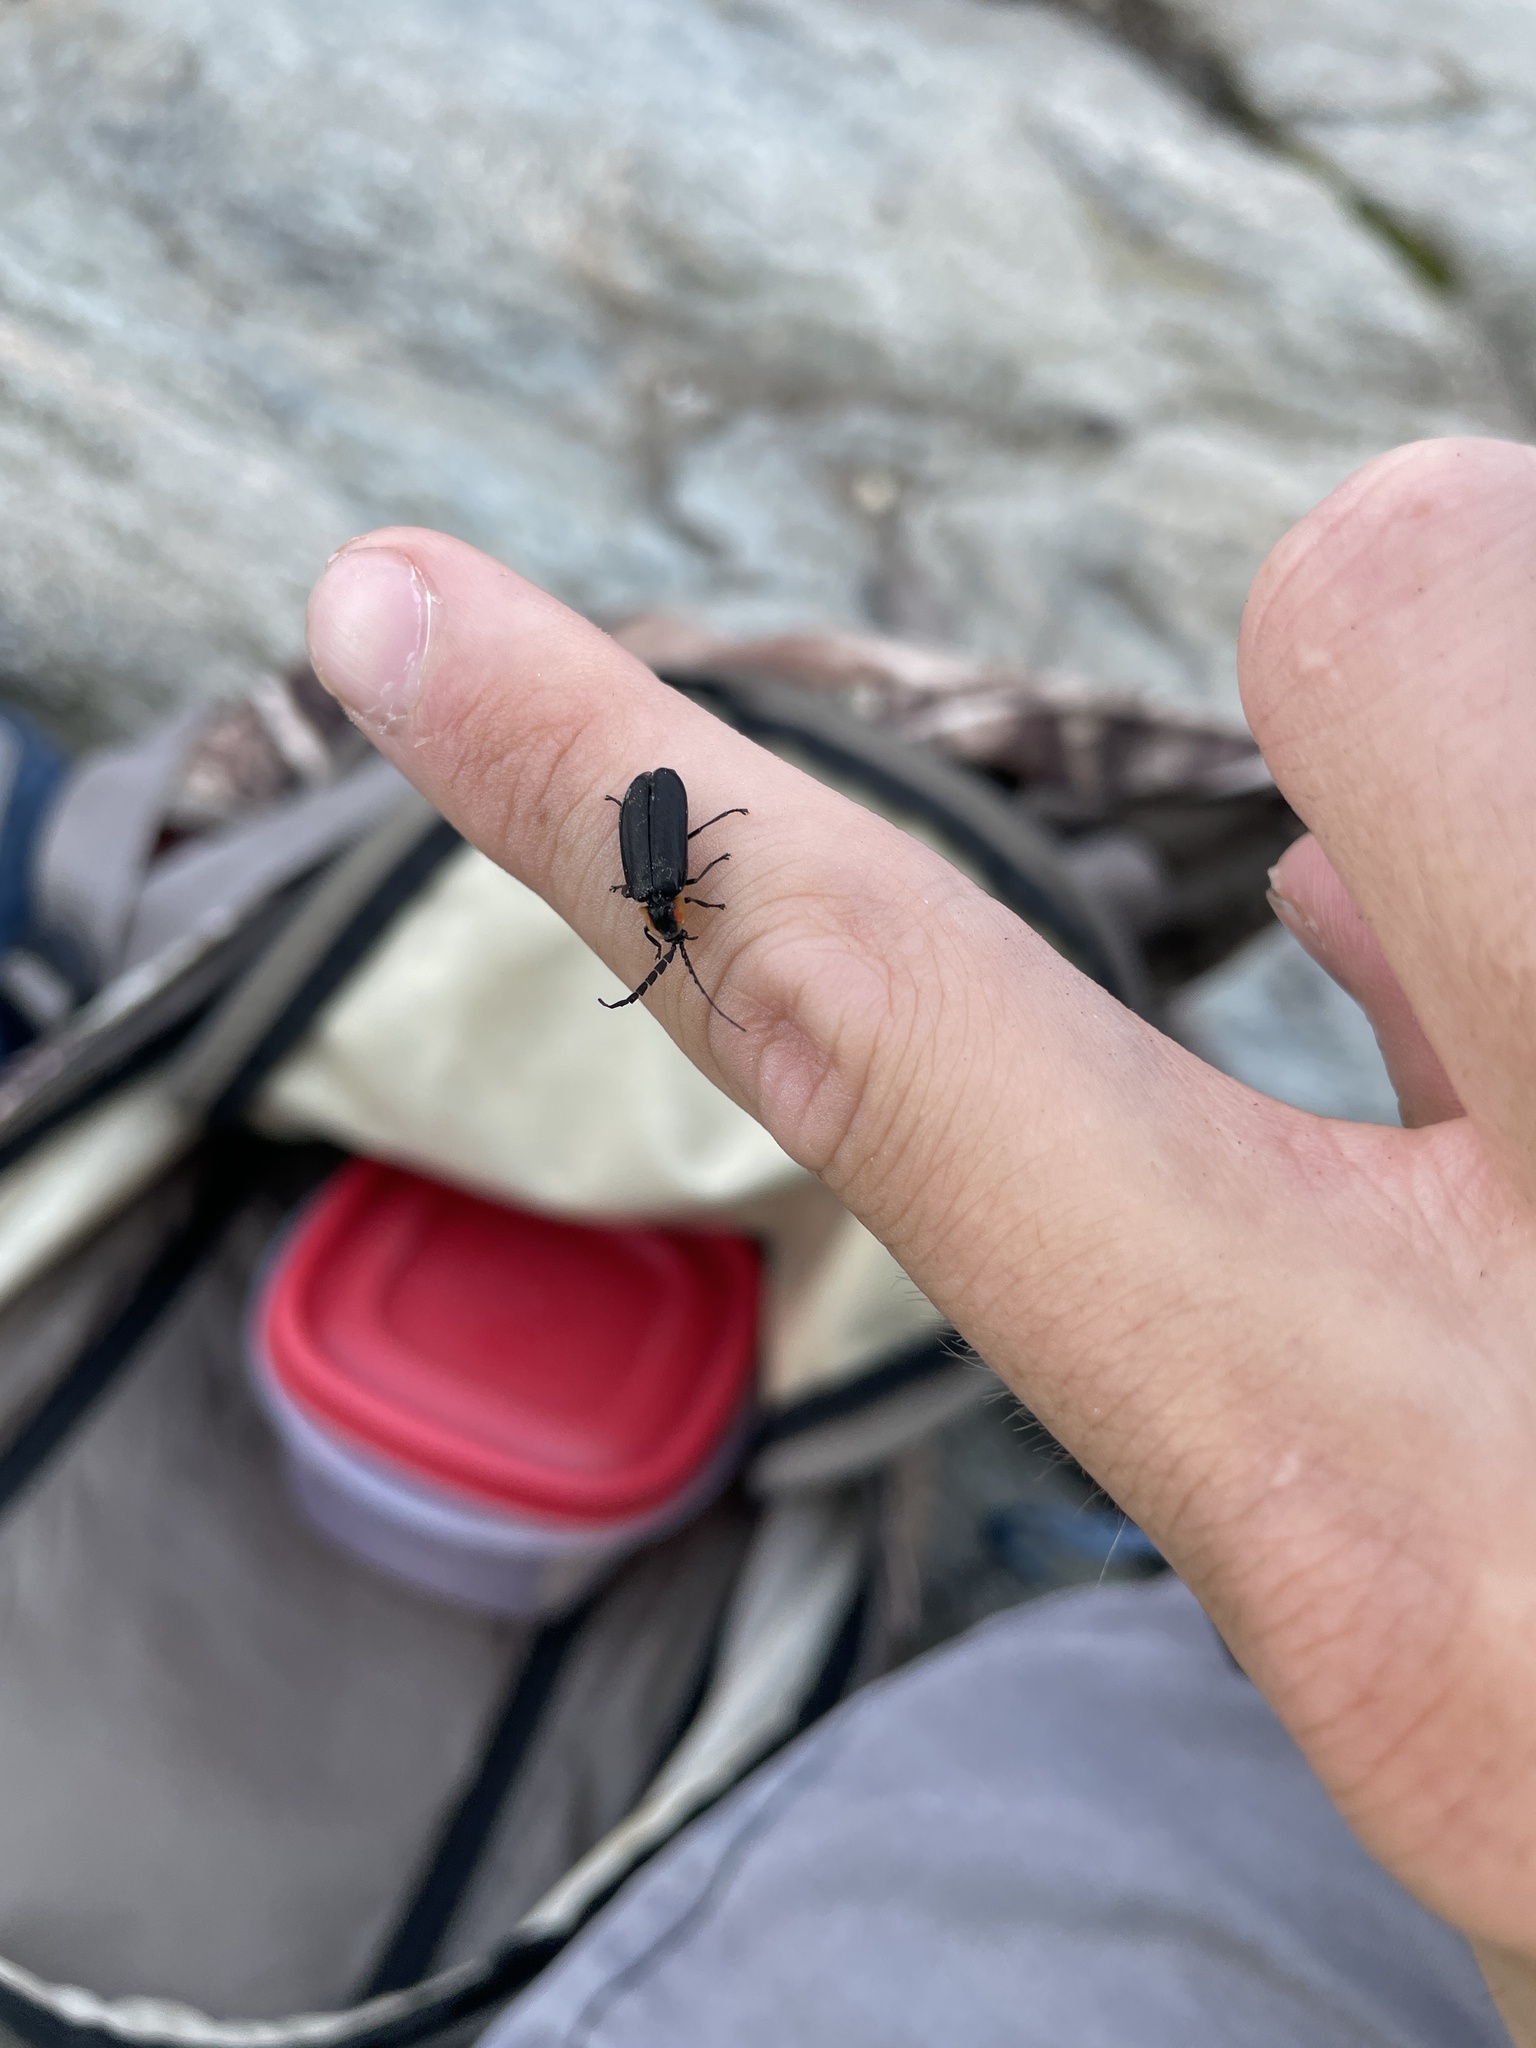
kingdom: Animalia
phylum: Arthropoda
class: Insecta
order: Coleoptera
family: Lampyridae
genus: Lucidota
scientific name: Lucidota atra
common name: Black firefly
